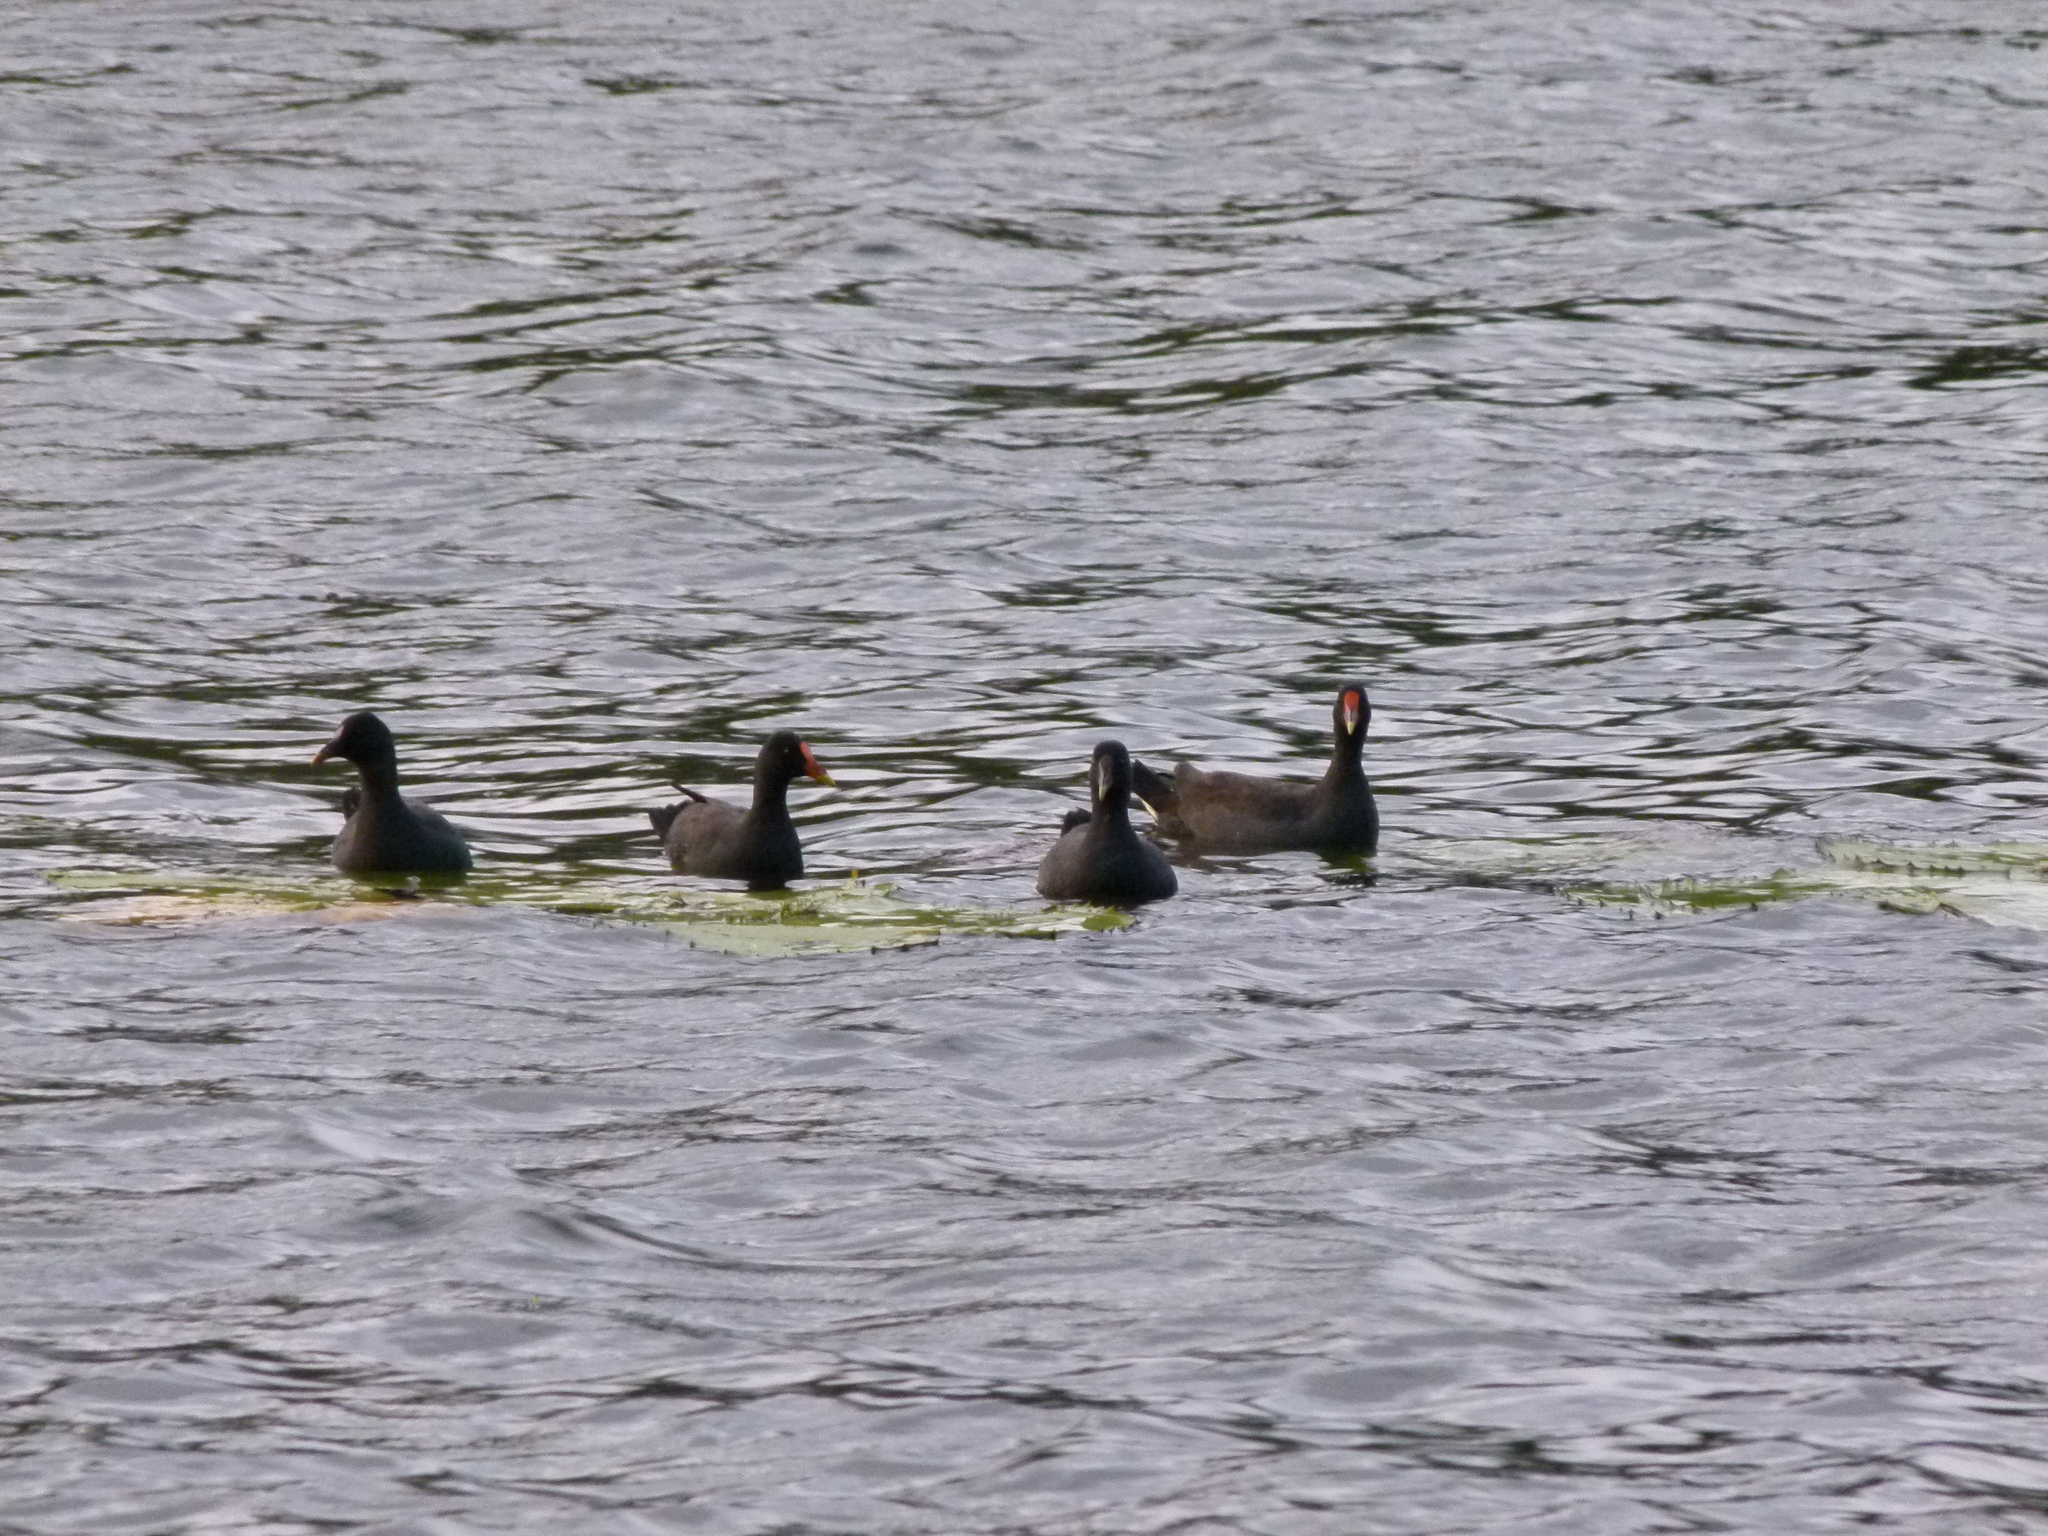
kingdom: Animalia
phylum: Chordata
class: Aves
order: Gruiformes
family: Rallidae
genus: Gallinula
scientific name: Gallinula tenebrosa
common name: Dusky moorhen
